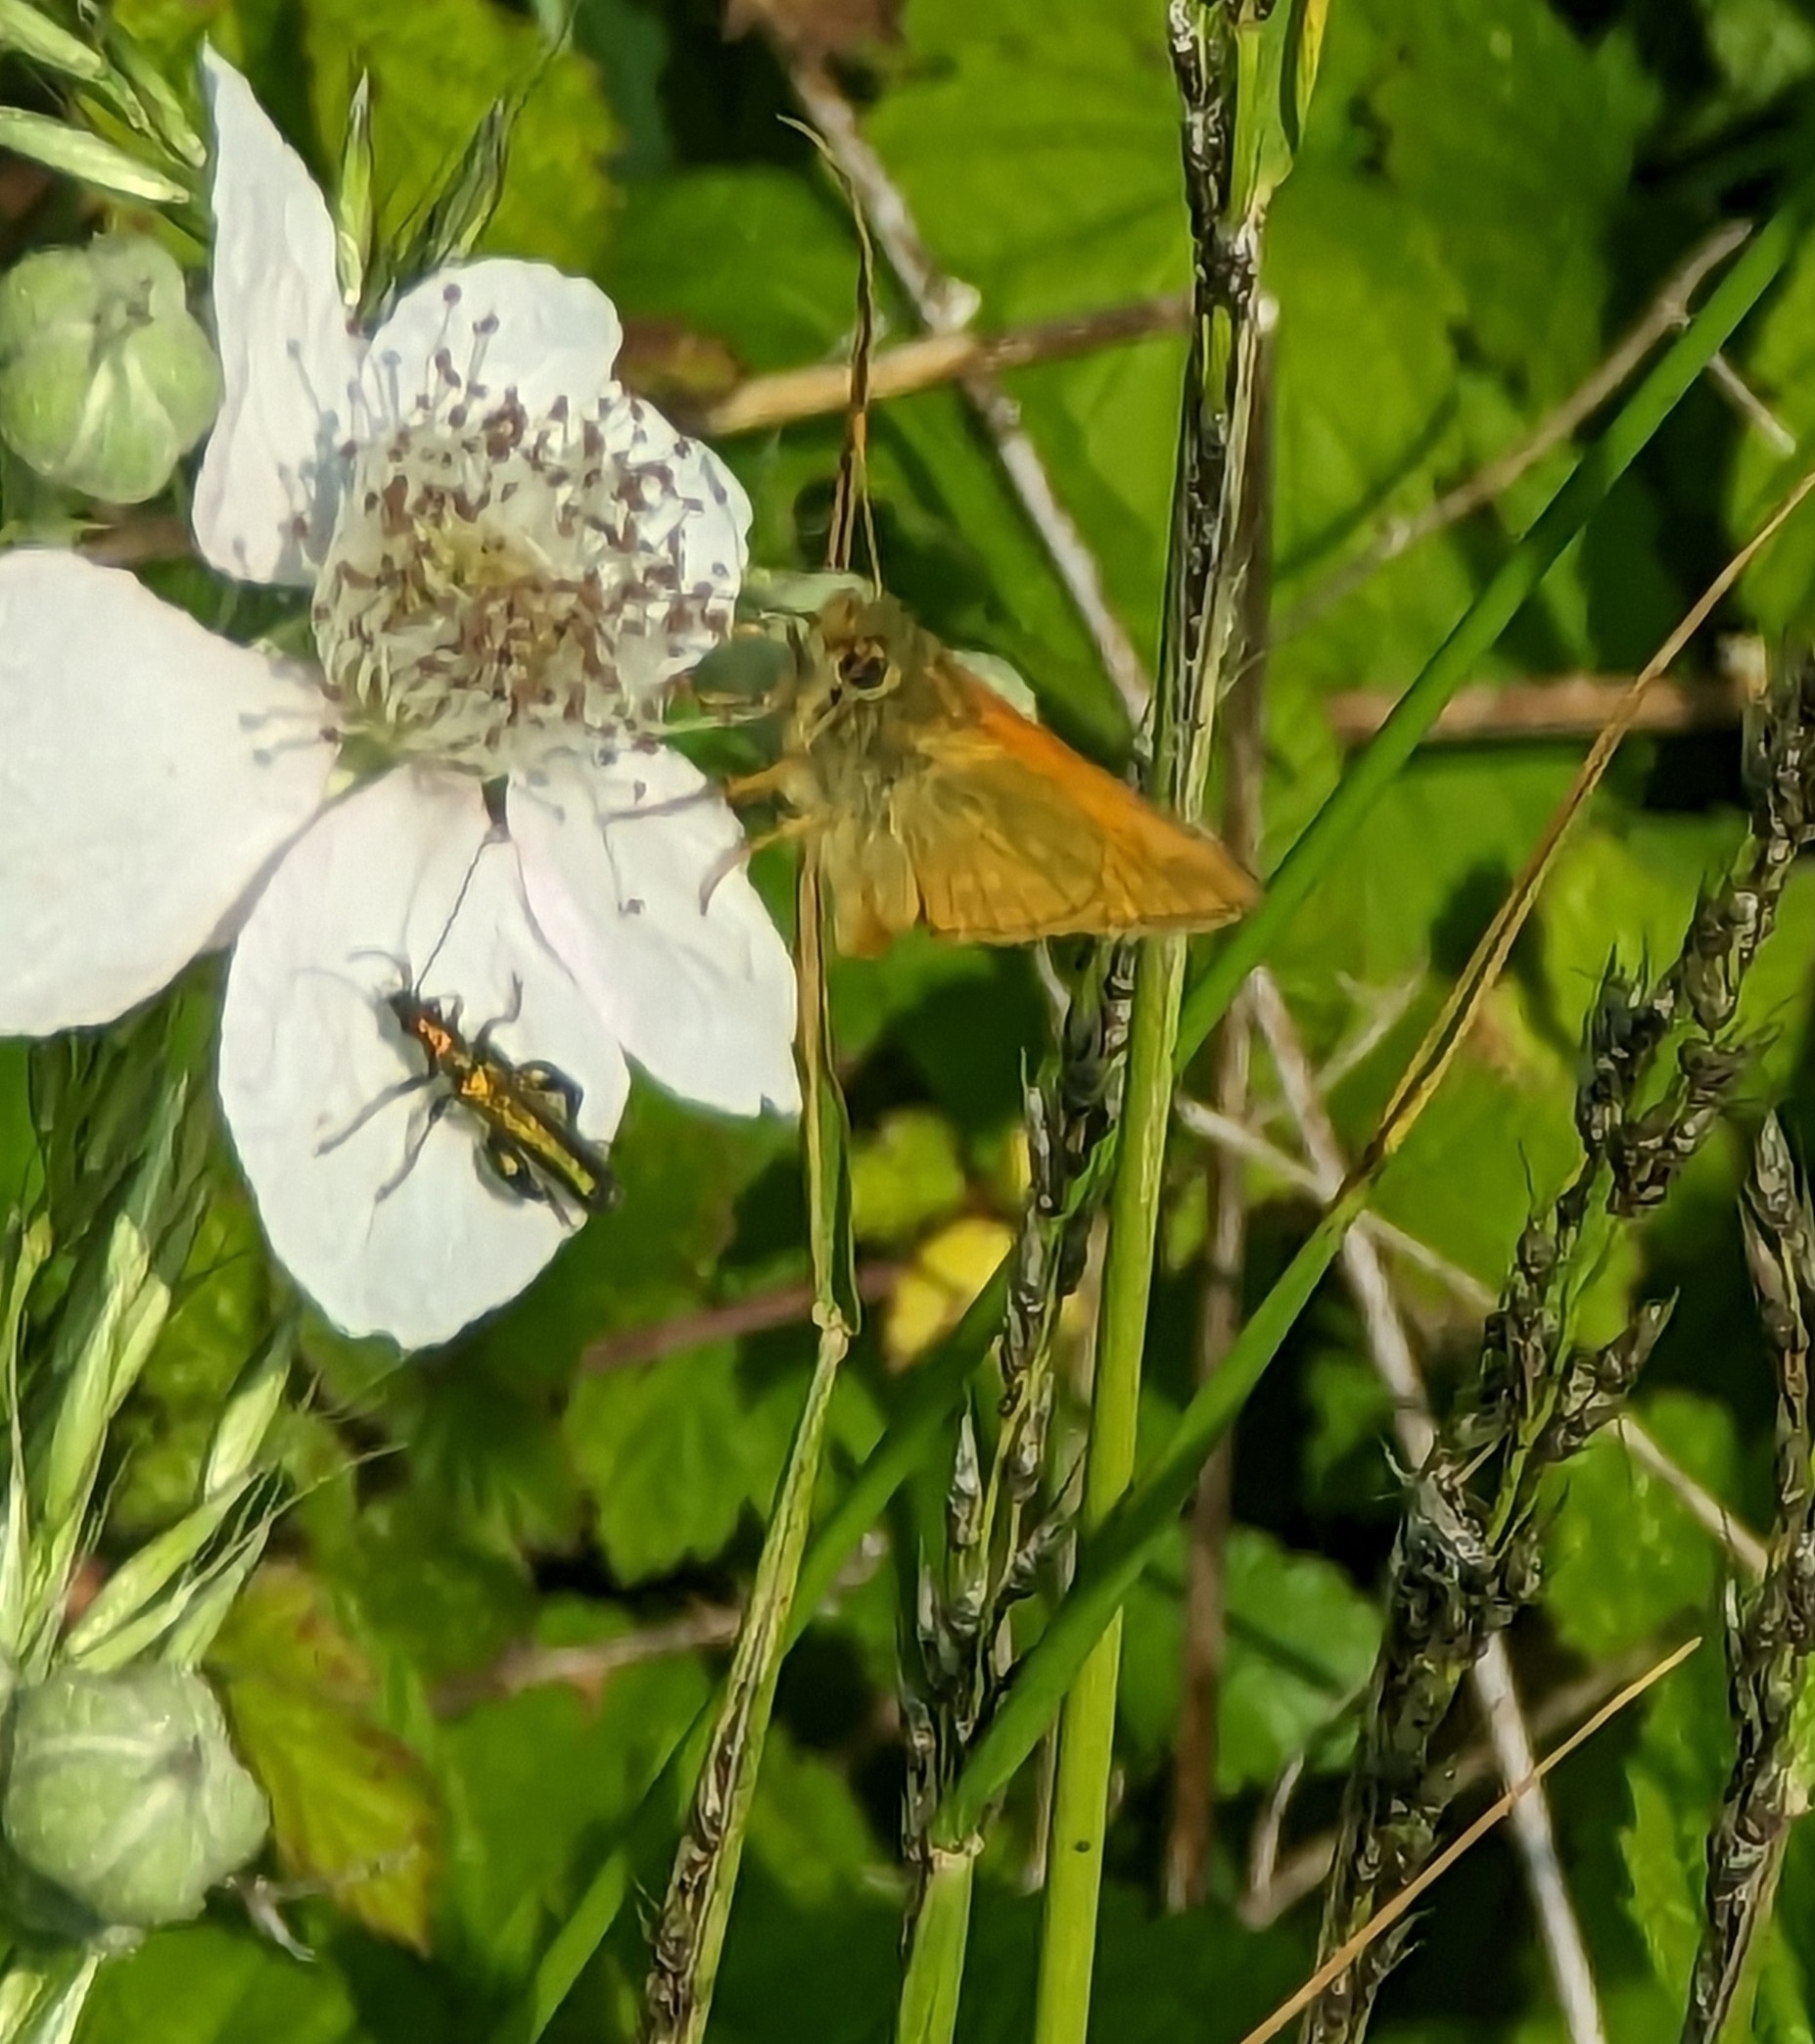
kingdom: Animalia
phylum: Arthropoda
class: Insecta
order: Lepidoptera
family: Hesperiidae
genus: Ochlodes
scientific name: Ochlodes venata
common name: Large skipper
